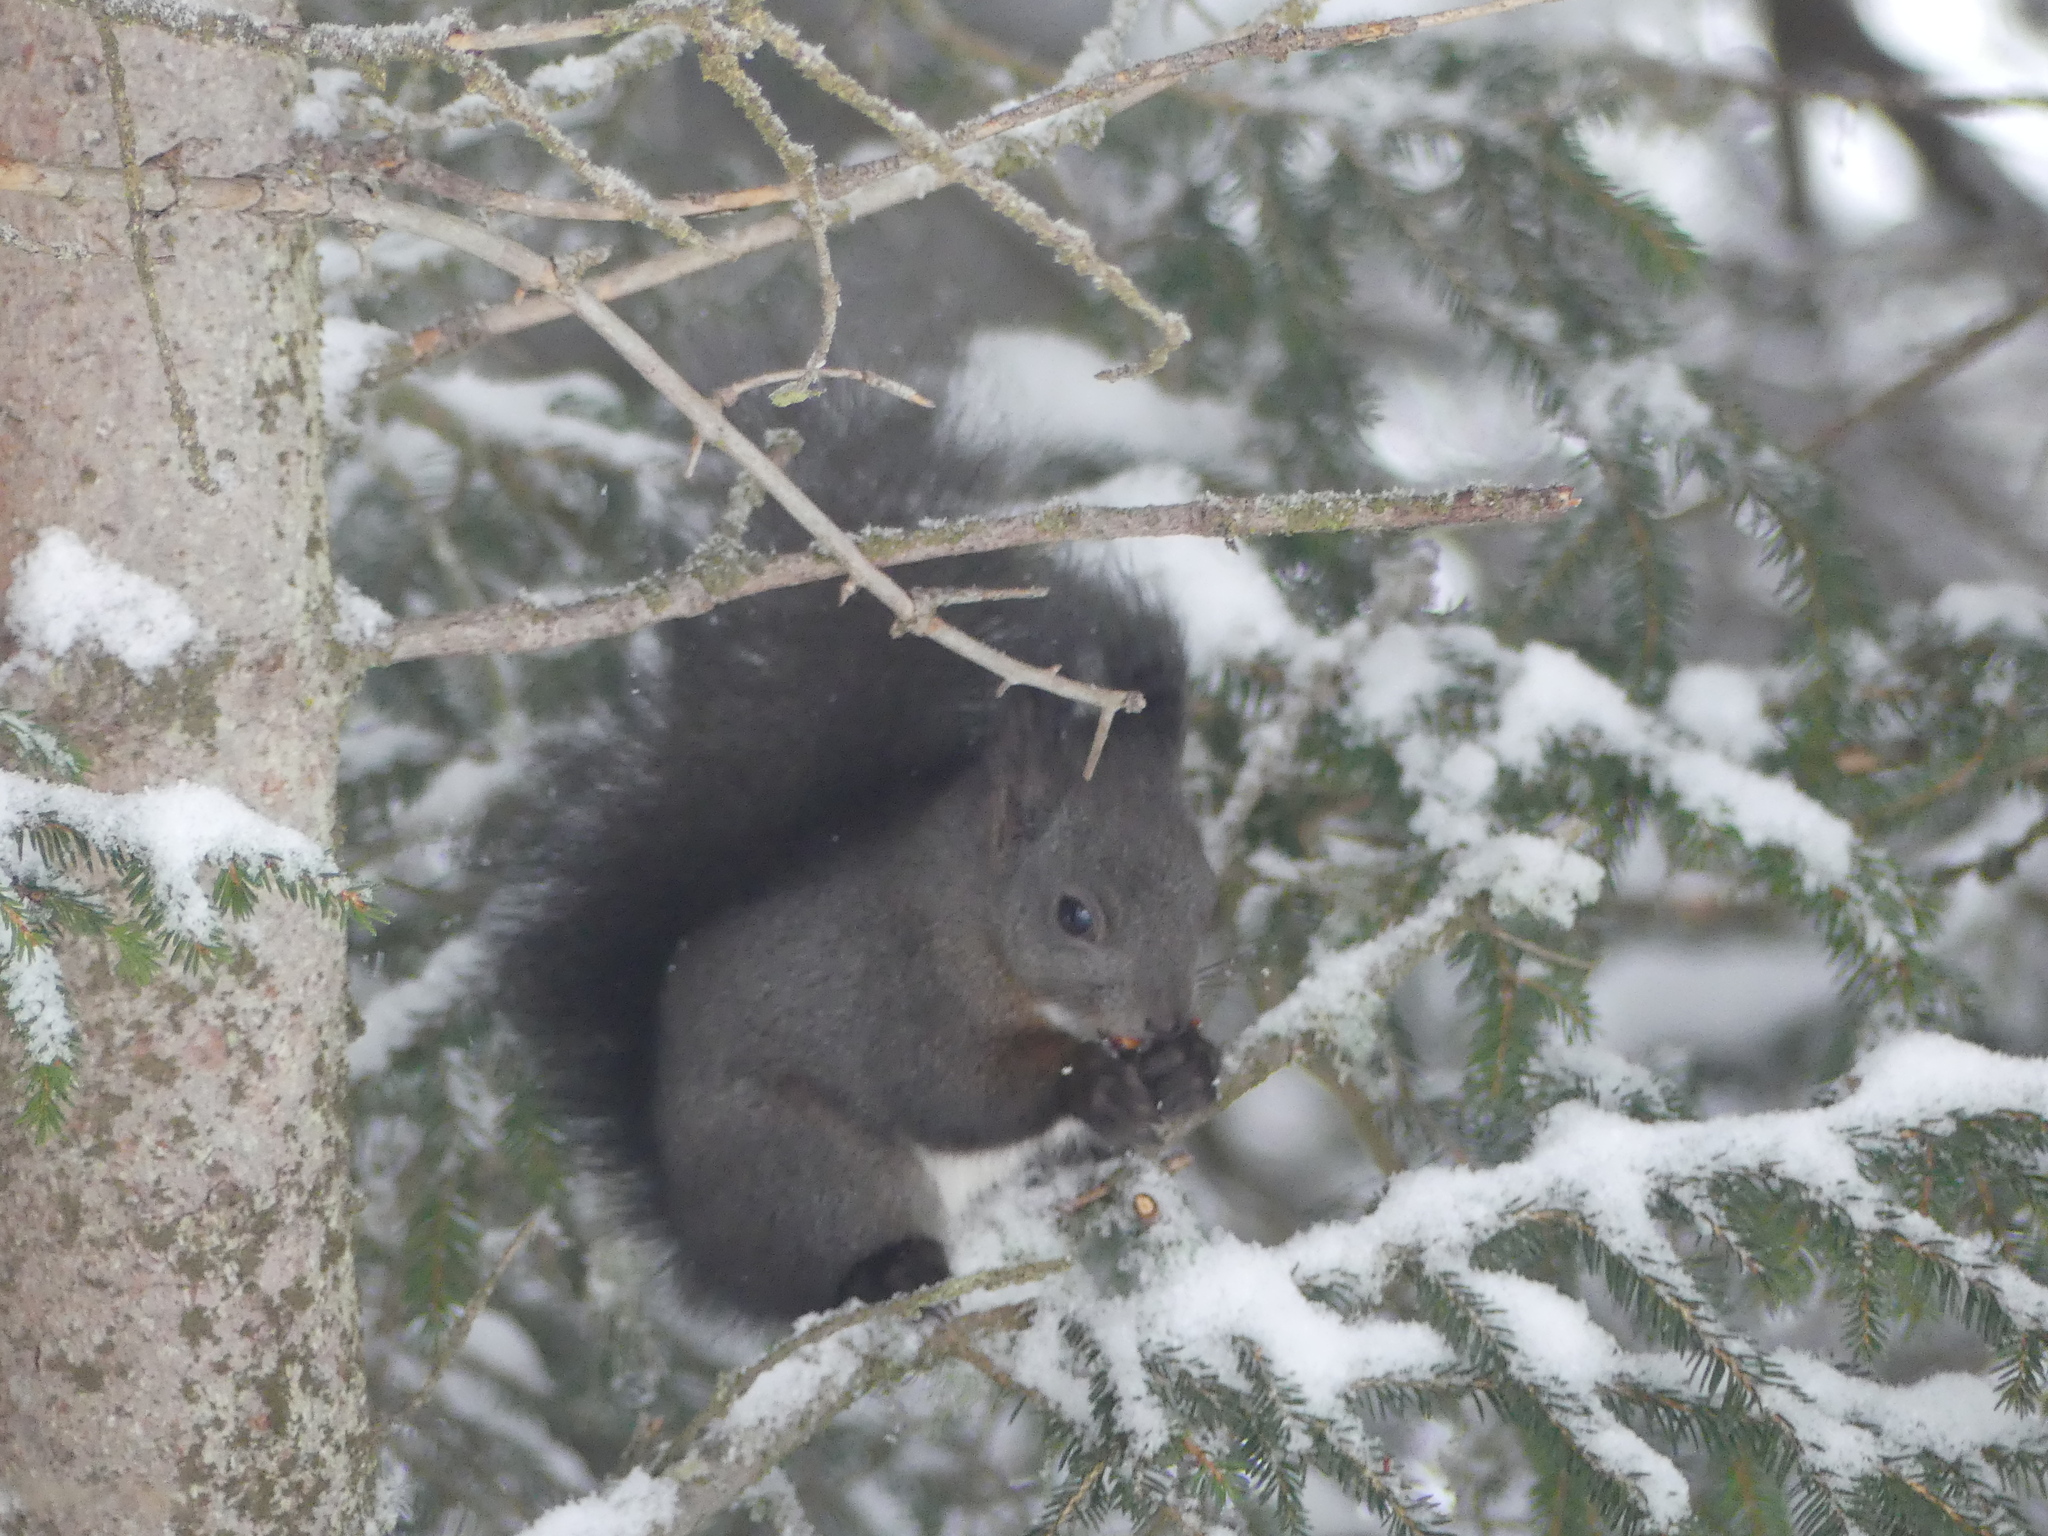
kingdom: Animalia
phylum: Chordata
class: Mammalia
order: Rodentia
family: Sciuridae
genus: Sciurus
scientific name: Sciurus vulgaris
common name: Eurasian red squirrel
